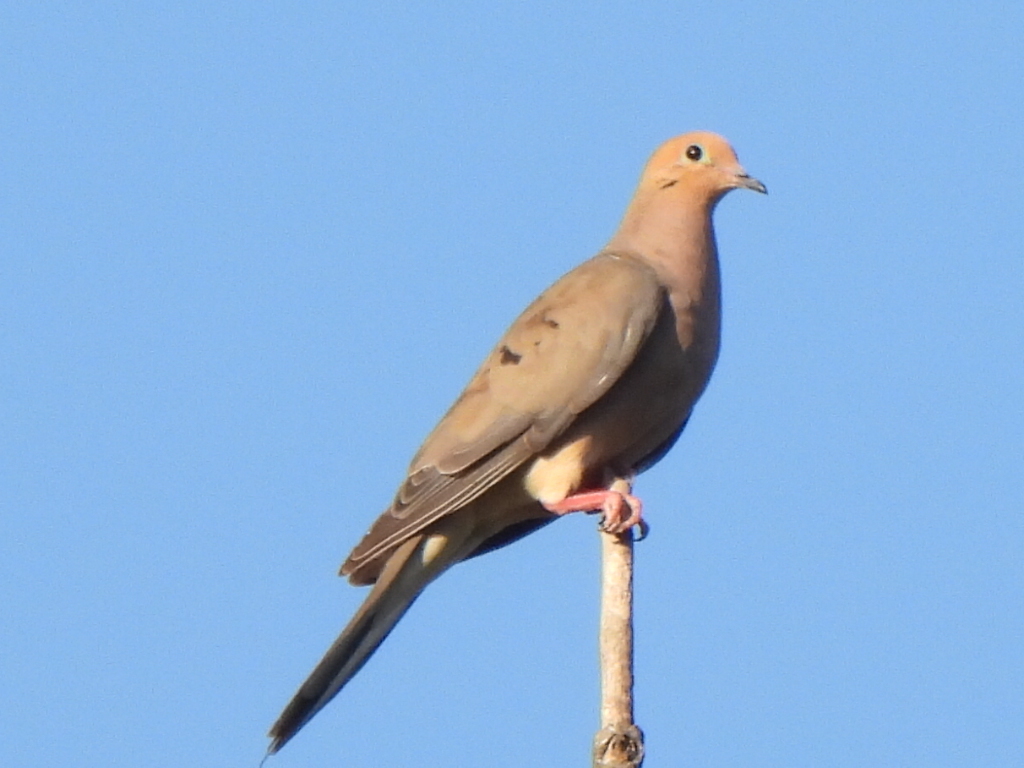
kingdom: Animalia
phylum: Chordata
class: Aves
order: Columbiformes
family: Columbidae
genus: Zenaida
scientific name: Zenaida macroura
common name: Mourning dove
